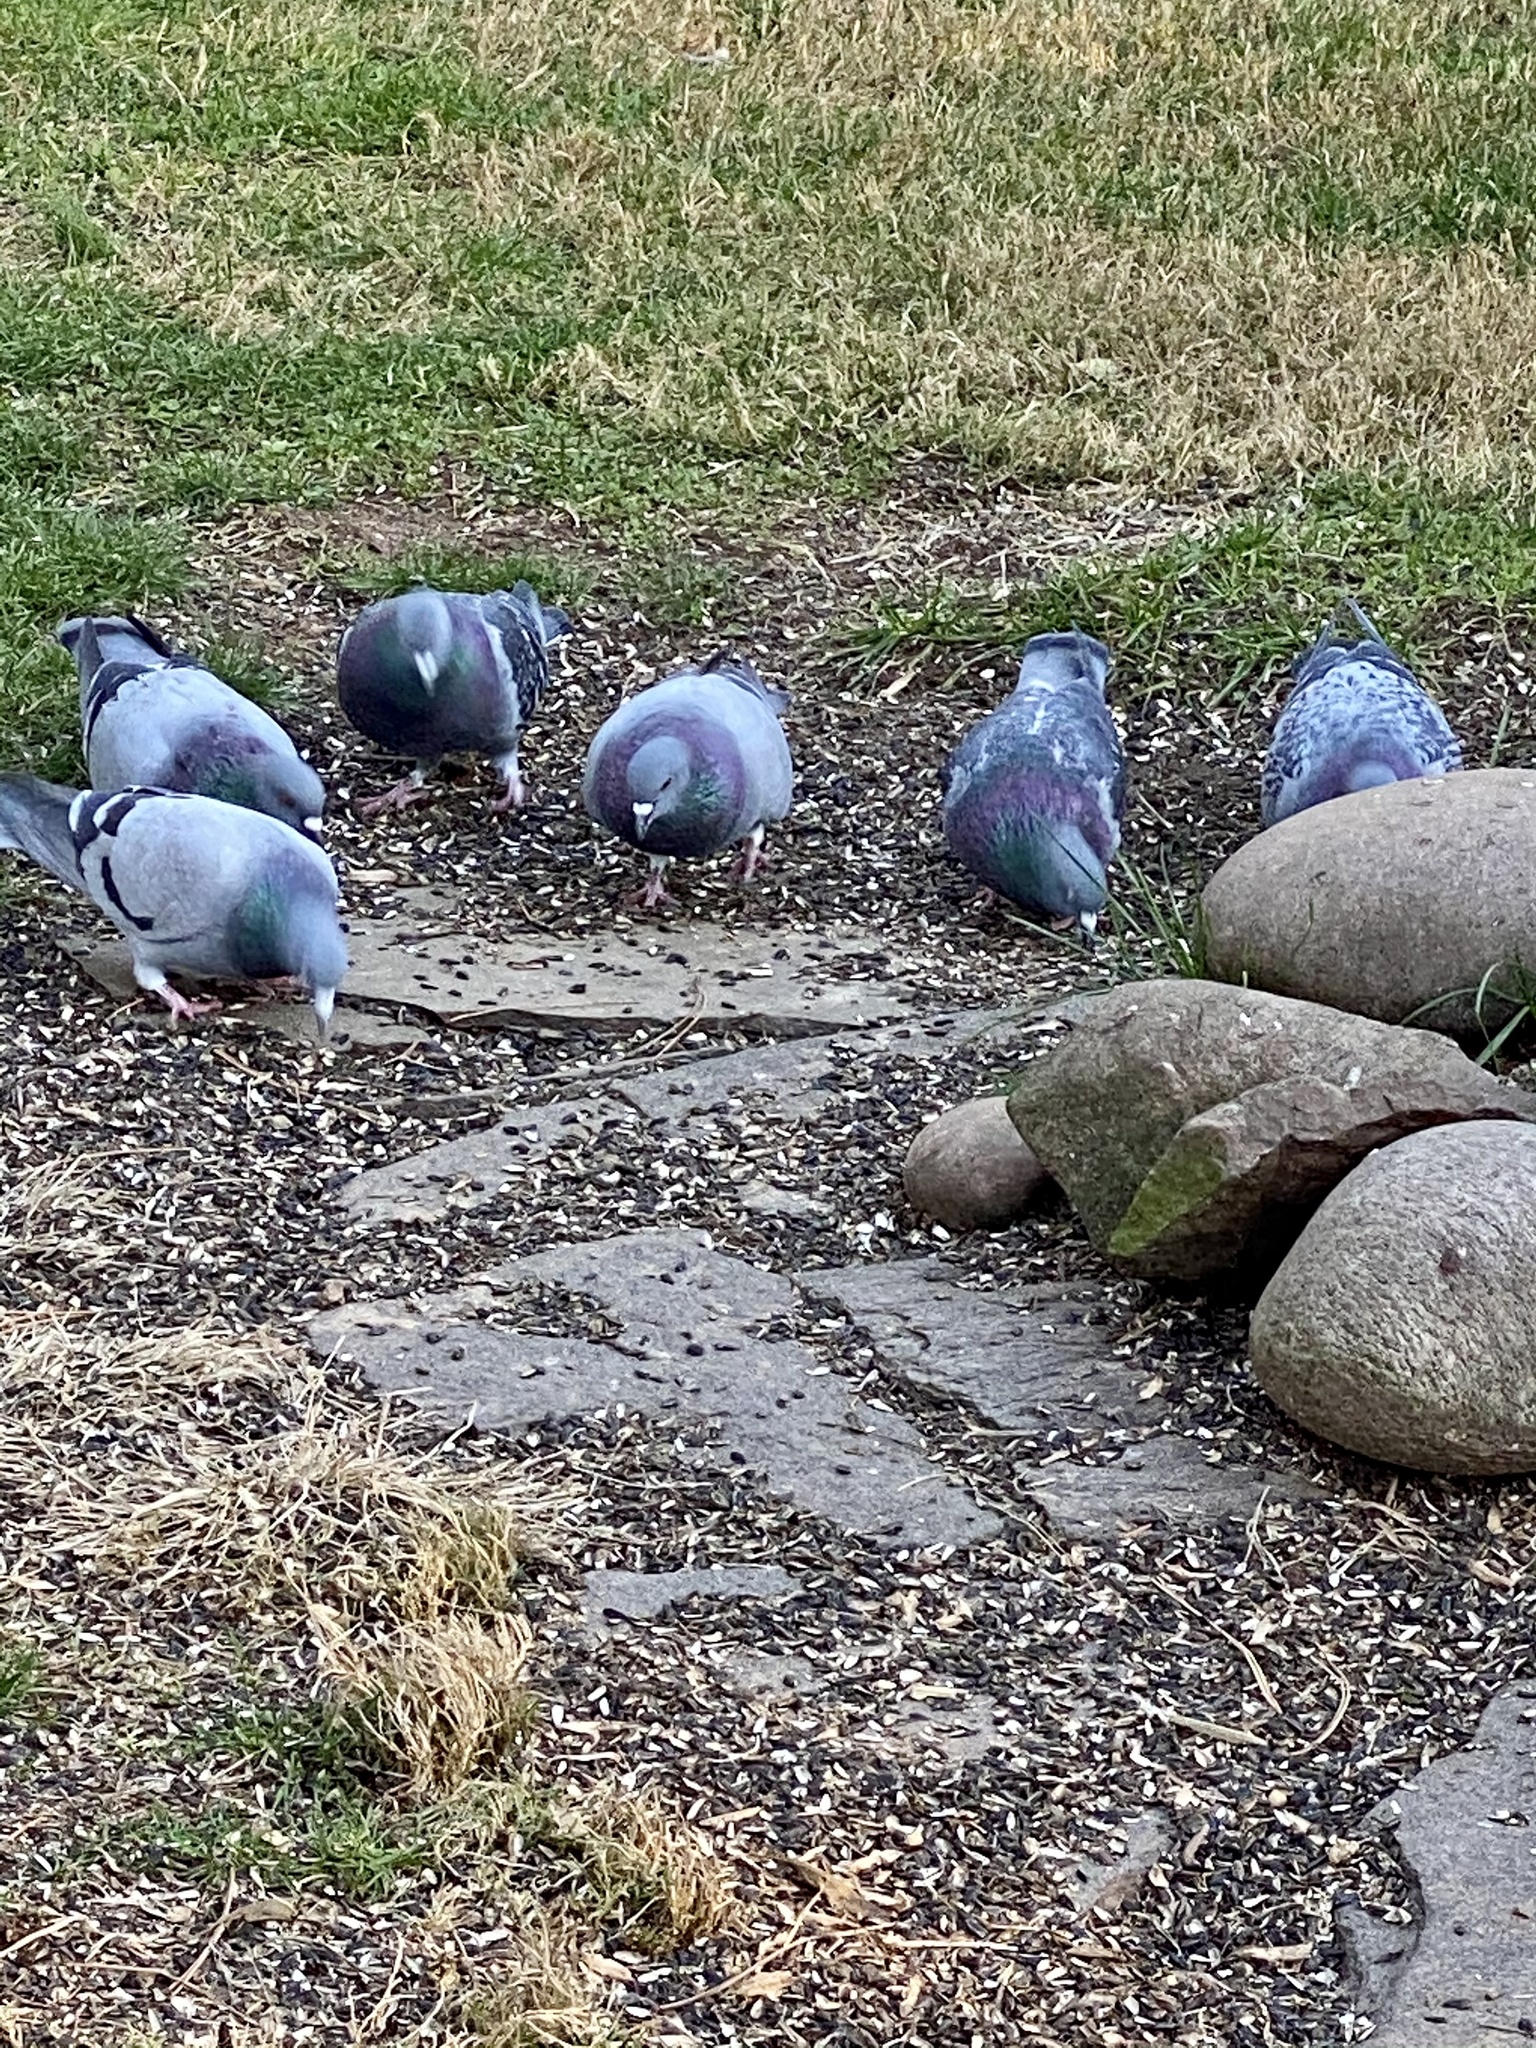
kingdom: Animalia
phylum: Chordata
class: Aves
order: Columbiformes
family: Columbidae
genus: Columba
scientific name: Columba livia
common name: Rock pigeon
